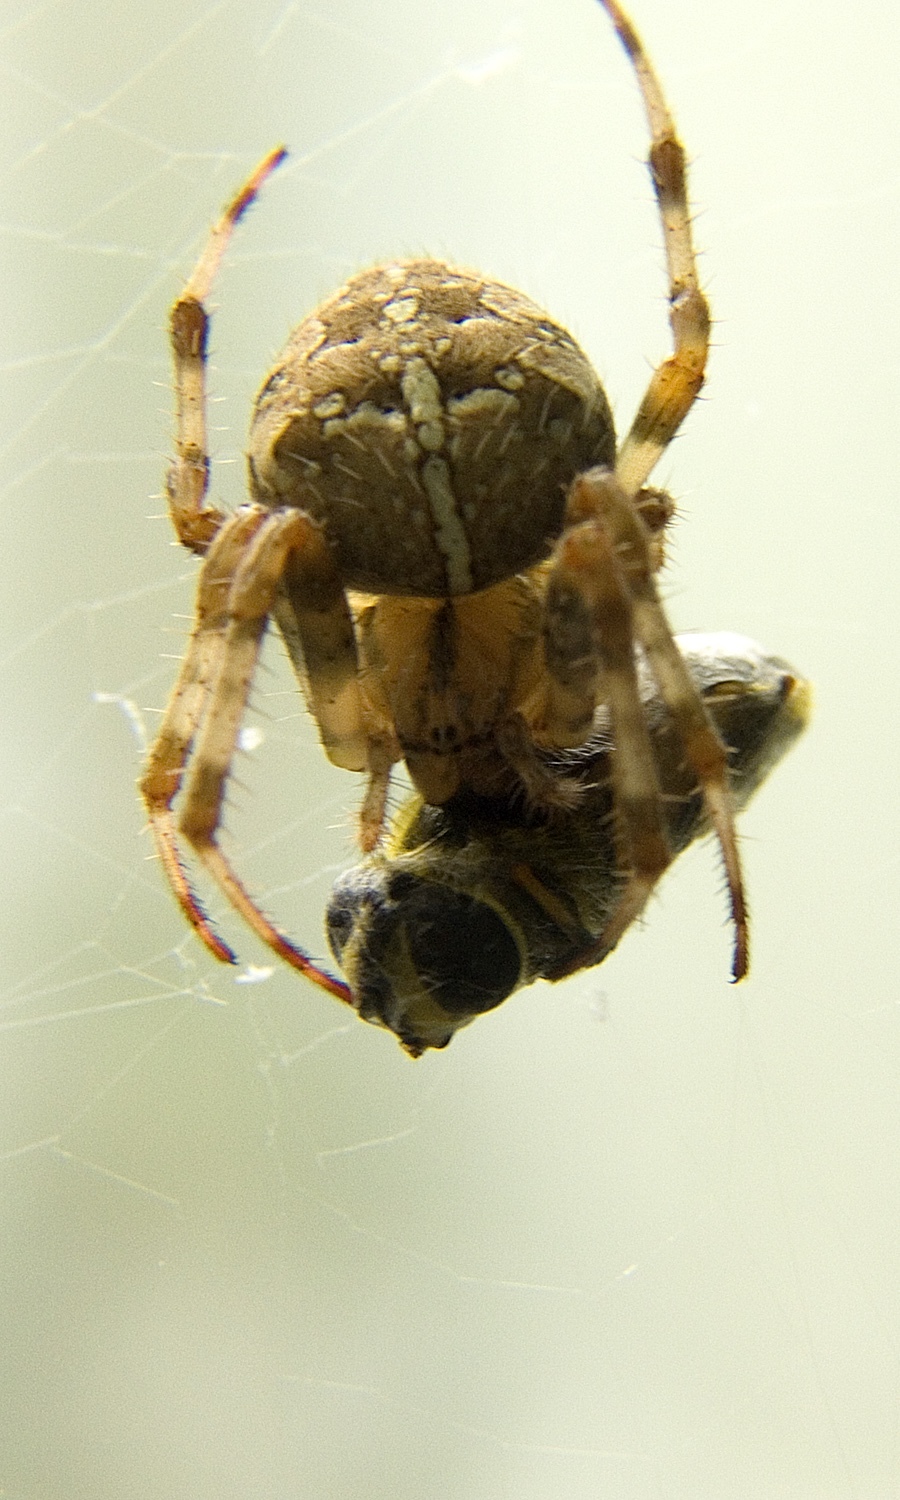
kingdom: Animalia
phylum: Arthropoda
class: Arachnida
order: Araneae
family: Araneidae
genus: Araneus
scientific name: Araneus diadematus
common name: Cross orbweaver
